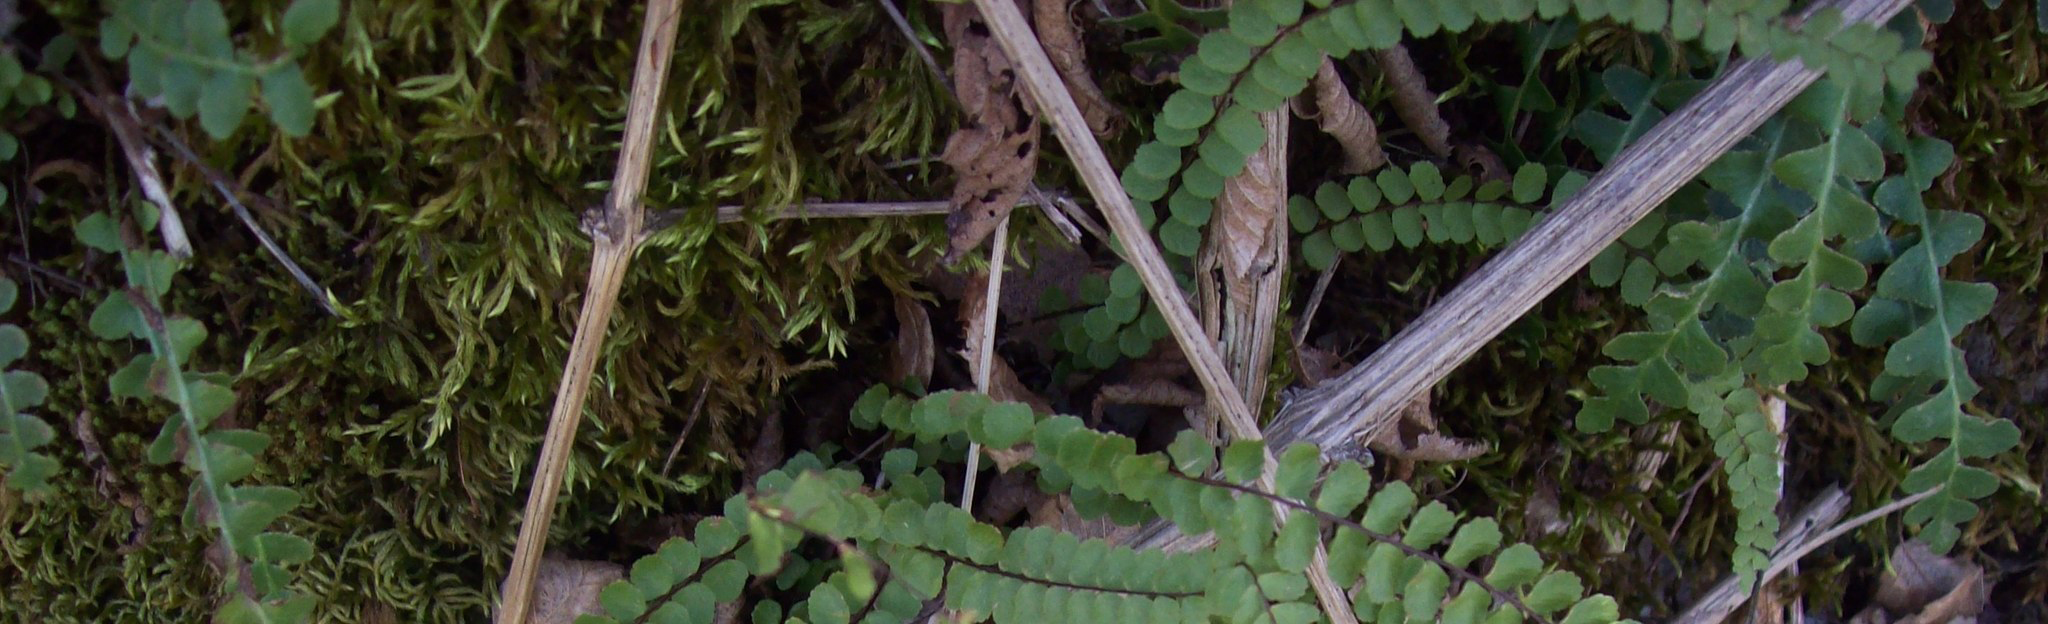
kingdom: Plantae
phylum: Tracheophyta
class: Polypodiopsida
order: Polypodiales
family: Aspleniaceae
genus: Asplenium
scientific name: Asplenium ceterach
